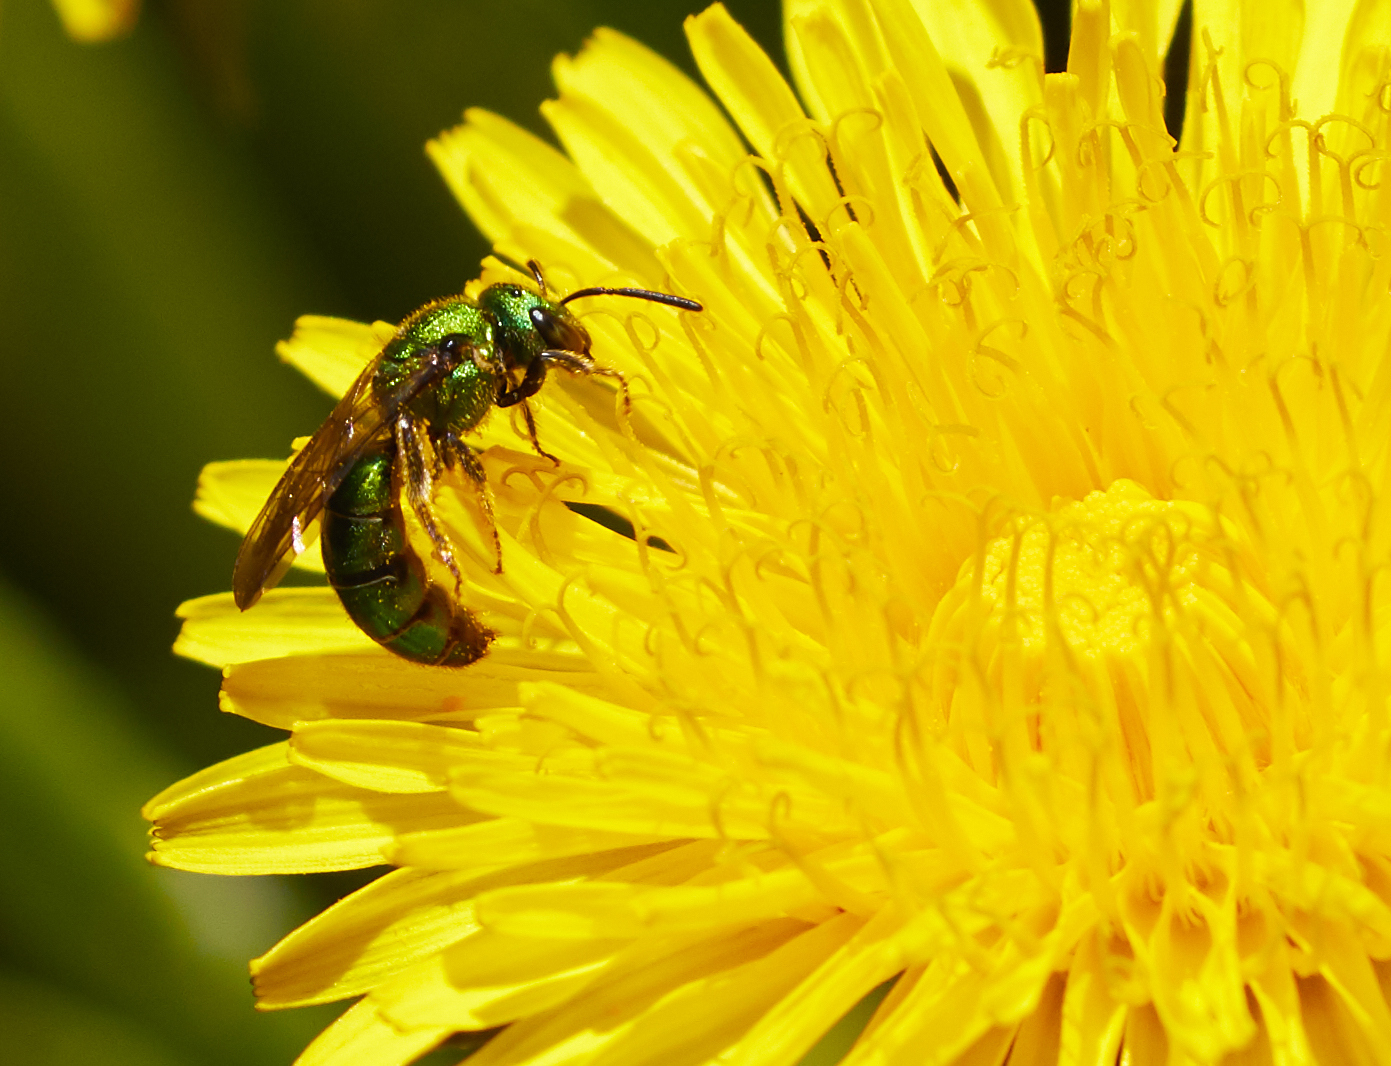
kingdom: Animalia
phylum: Arthropoda
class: Insecta
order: Hymenoptera
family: Halictidae
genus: Augochlora
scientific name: Augochlora pura
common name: Pure green sweat bee
